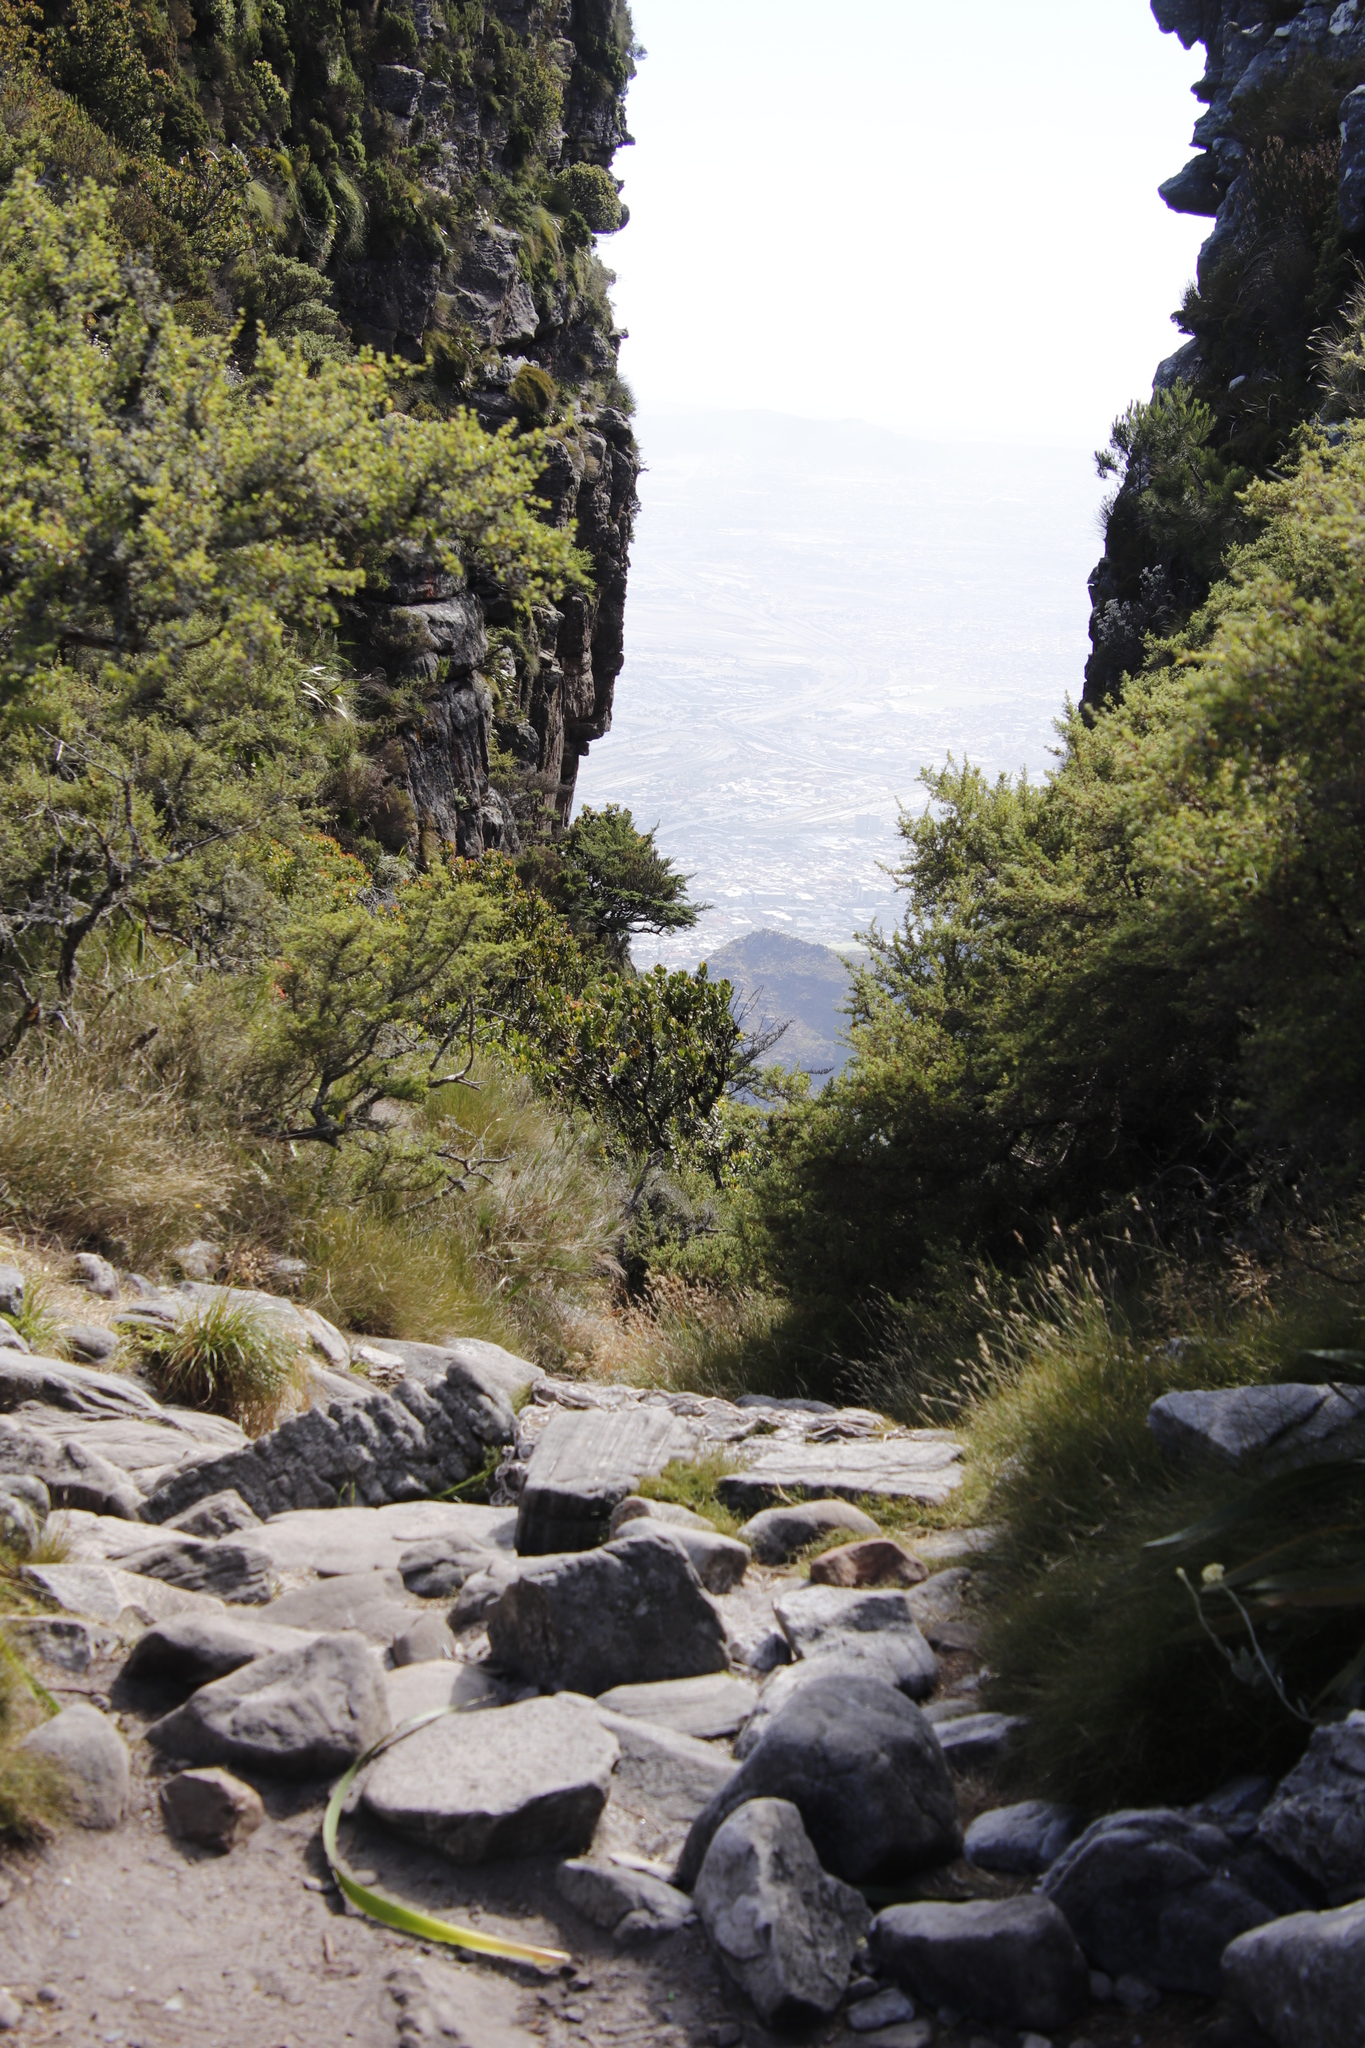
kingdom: Plantae
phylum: Tracheophyta
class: Magnoliopsida
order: Rosales
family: Rosaceae
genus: Cliffortia
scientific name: Cliffortia tridentata
